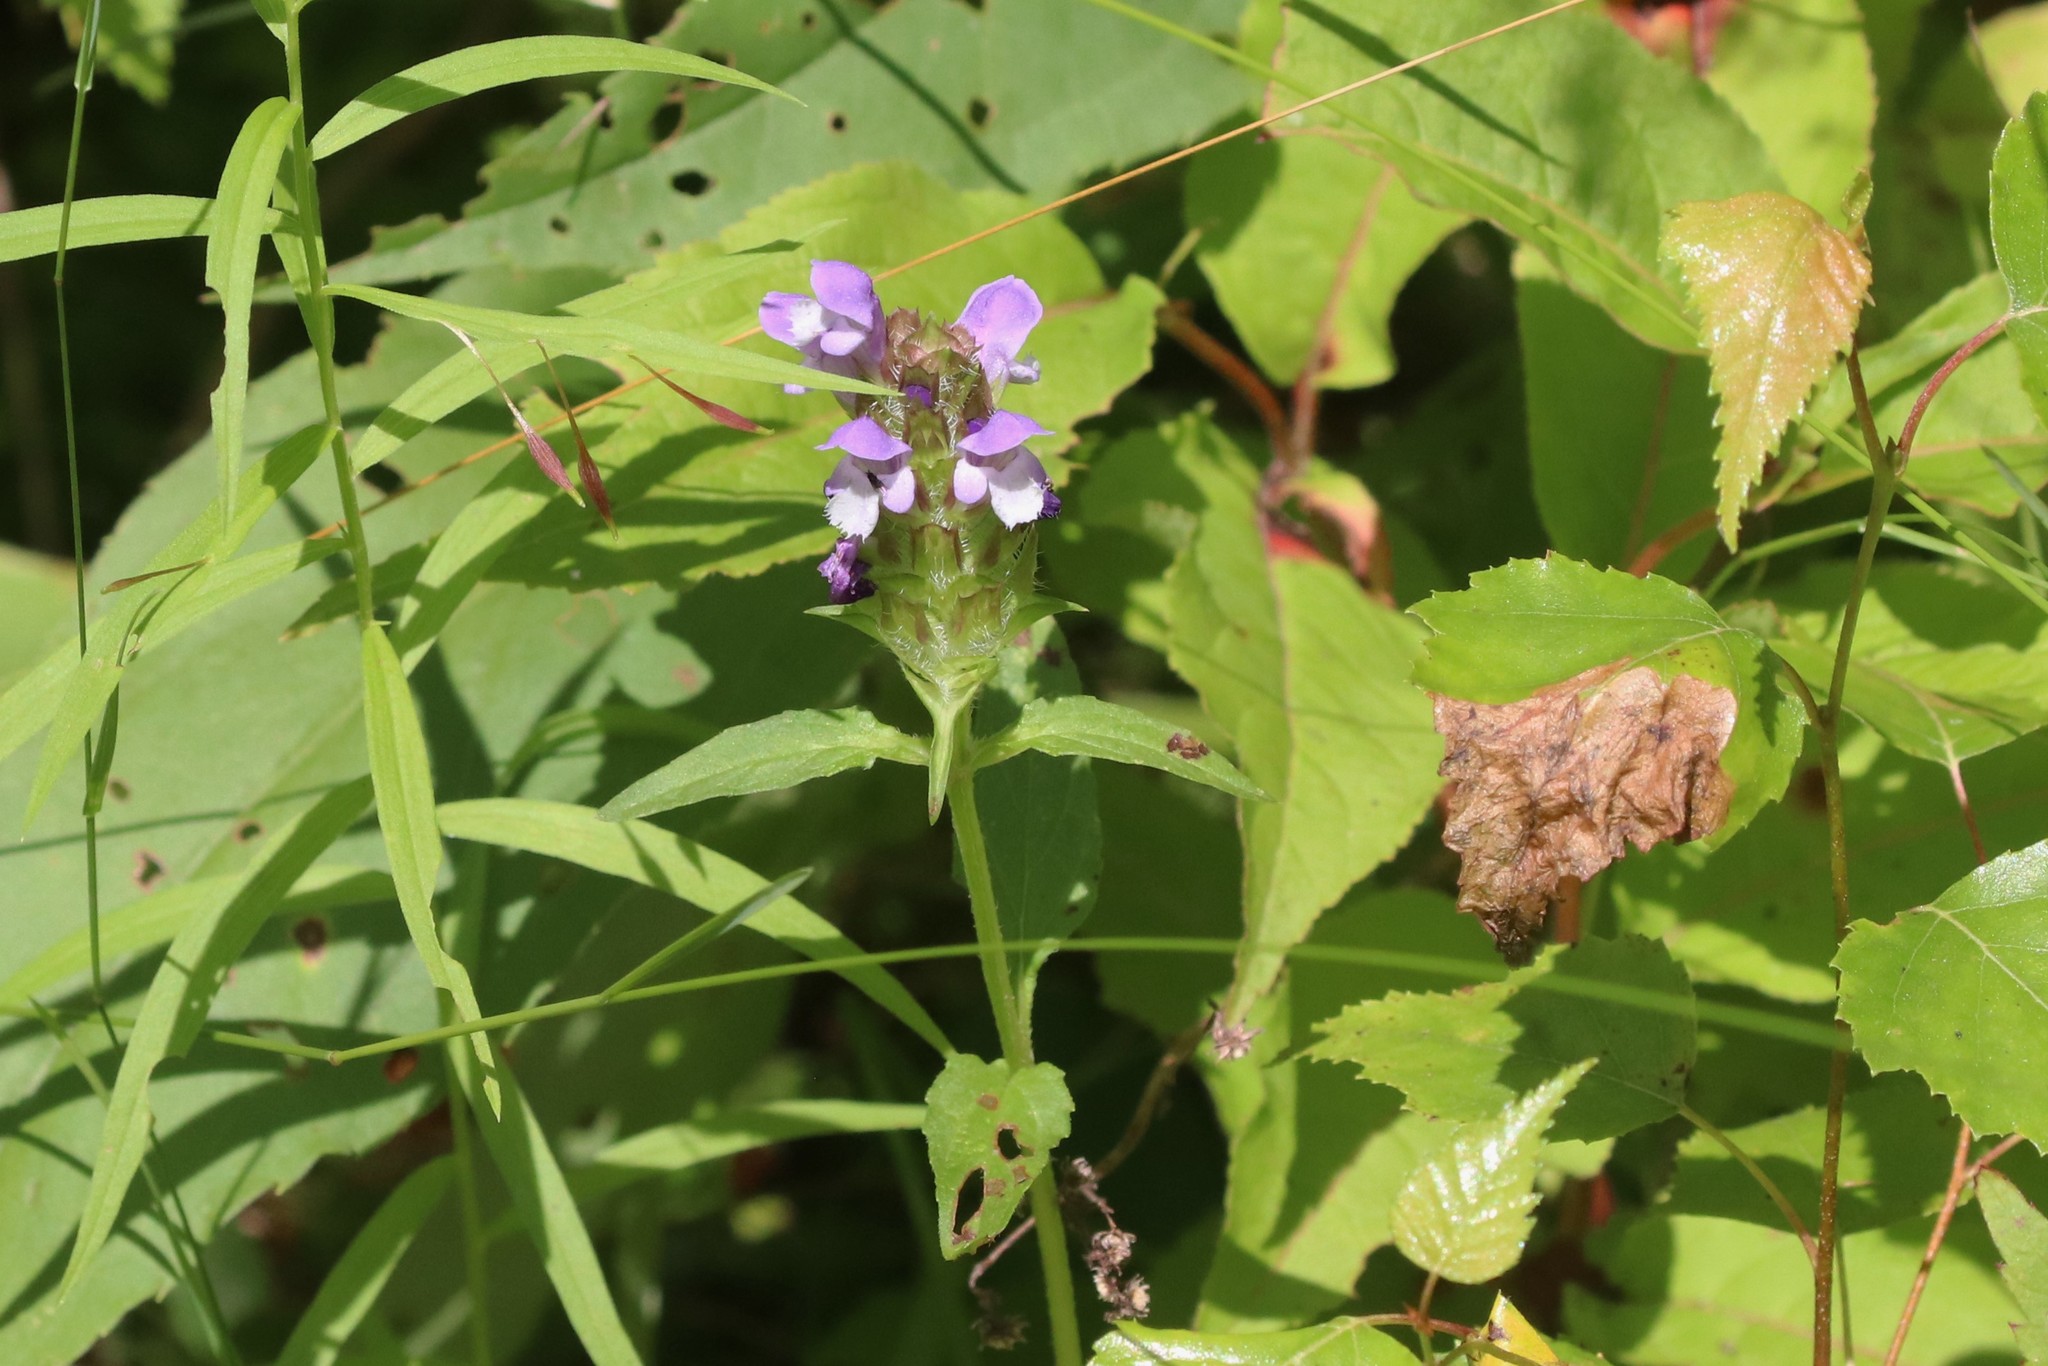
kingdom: Plantae
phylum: Tracheophyta
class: Magnoliopsida
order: Lamiales
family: Lamiaceae
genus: Prunella
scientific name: Prunella vulgaris
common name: Heal-all
